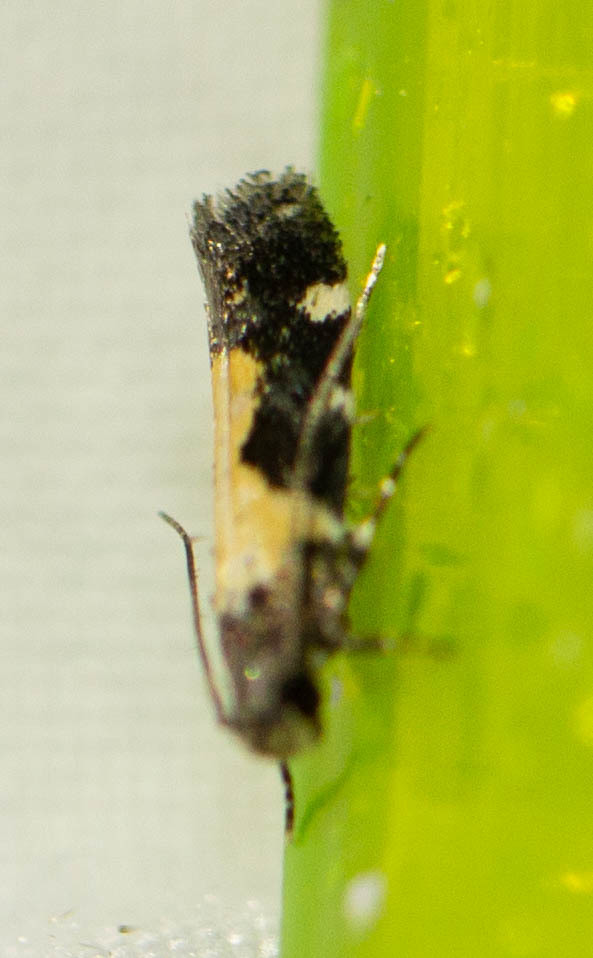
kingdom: Animalia
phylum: Arthropoda
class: Insecta
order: Lepidoptera
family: Gelechiidae
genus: Stegasta
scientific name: Stegasta bosqueella
